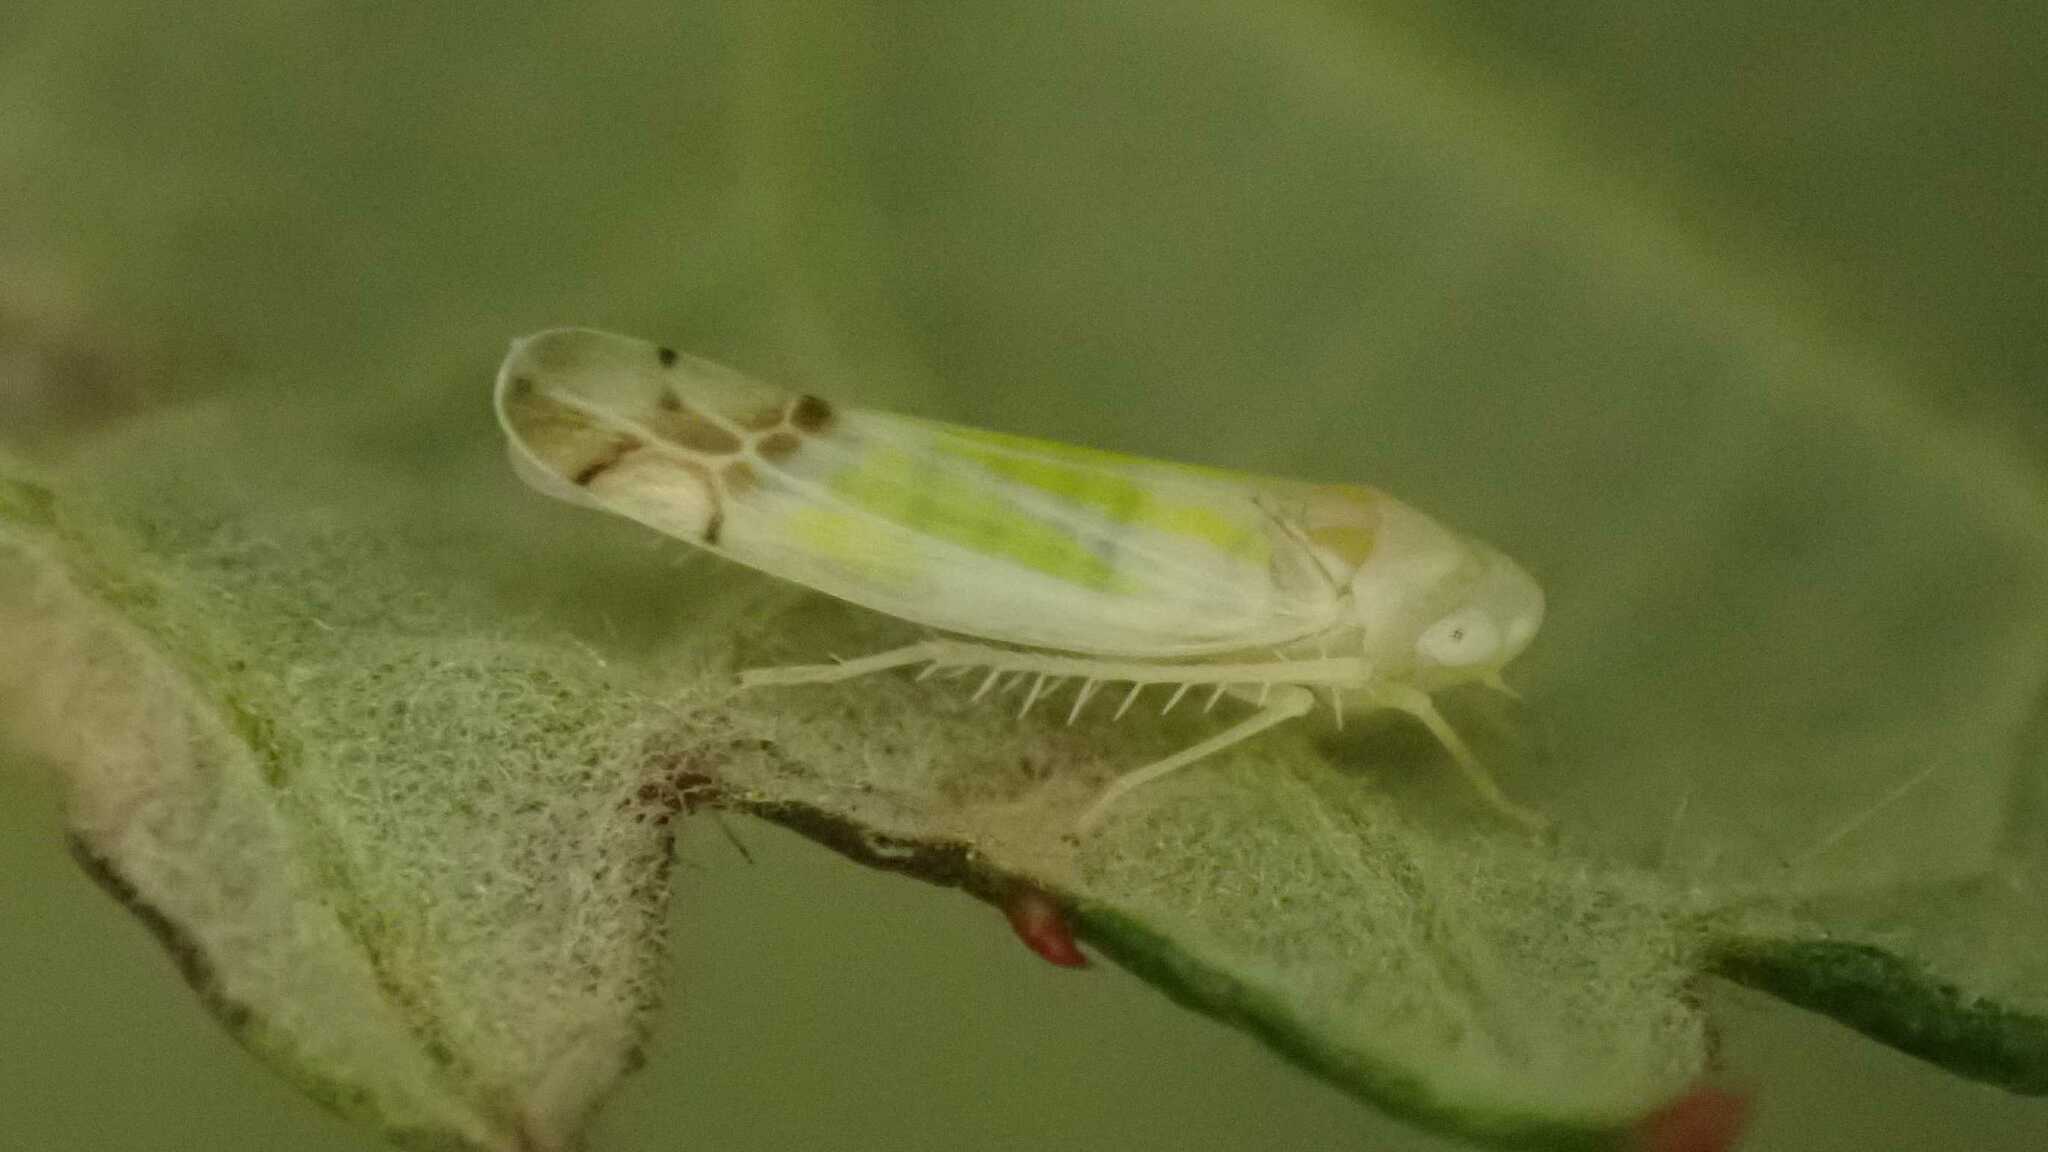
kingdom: Animalia
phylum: Arthropoda
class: Insecta
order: Hemiptera
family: Cicadellidae
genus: Ribautiana
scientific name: Ribautiana tenerrima
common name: Bramble leafhopper
